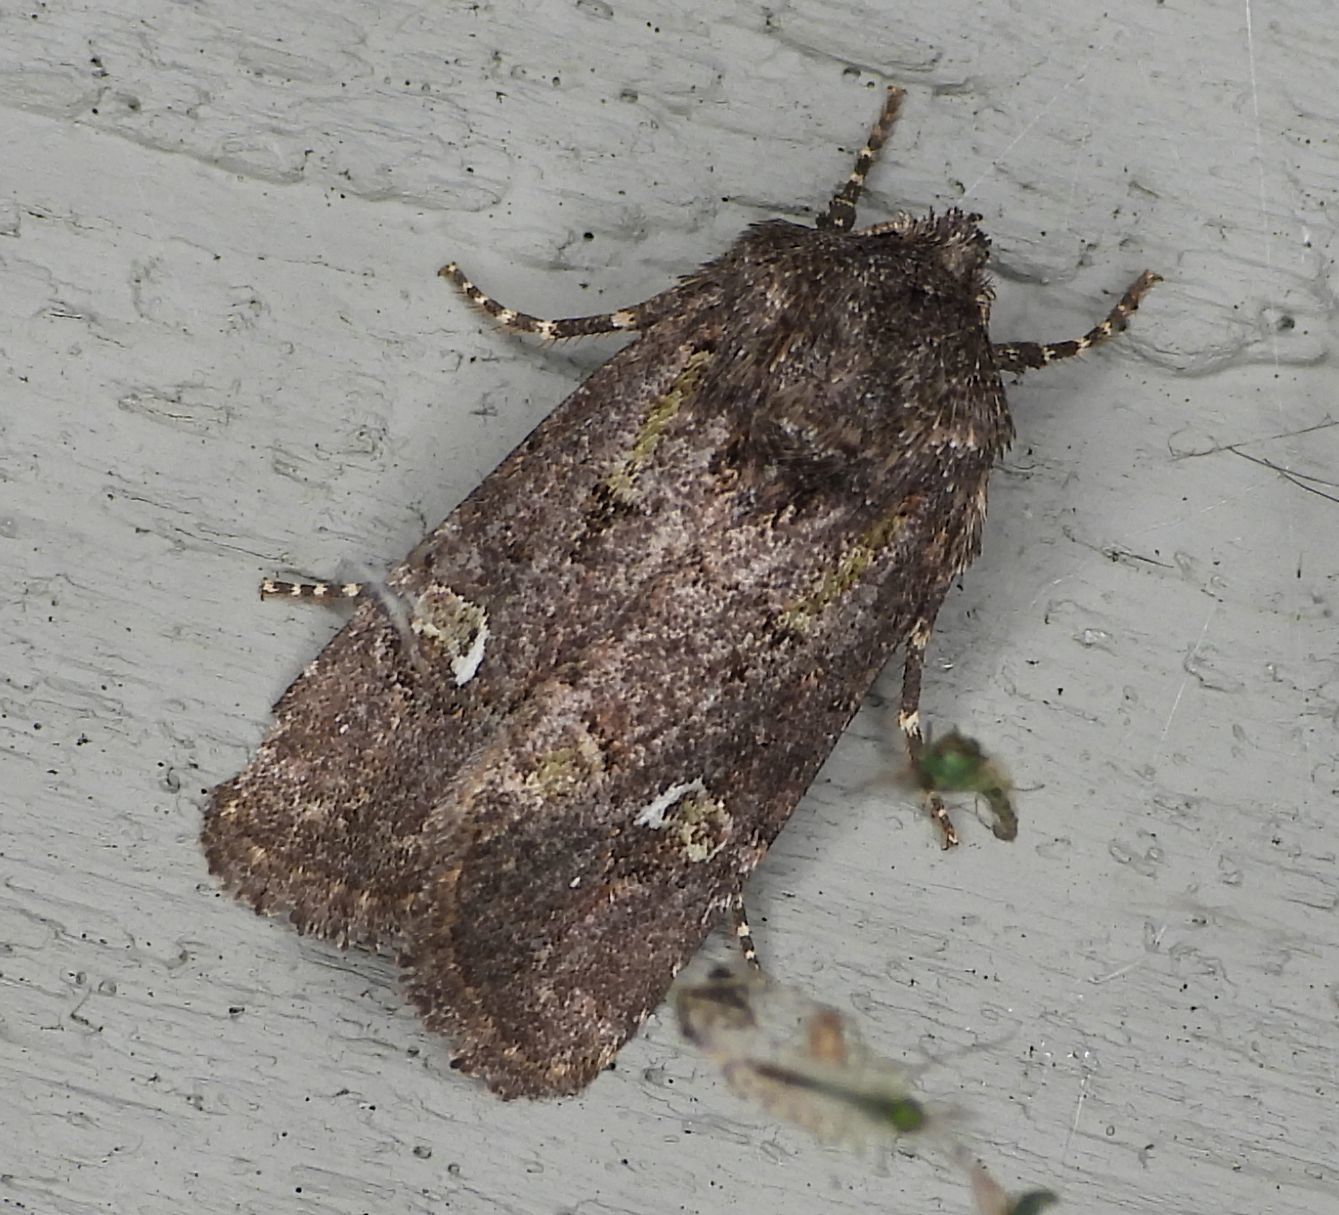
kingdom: Animalia
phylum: Arthropoda
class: Insecta
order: Lepidoptera
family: Noctuidae
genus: Lacinipolia
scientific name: Lacinipolia renigera
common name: Kidney-spotted minor
